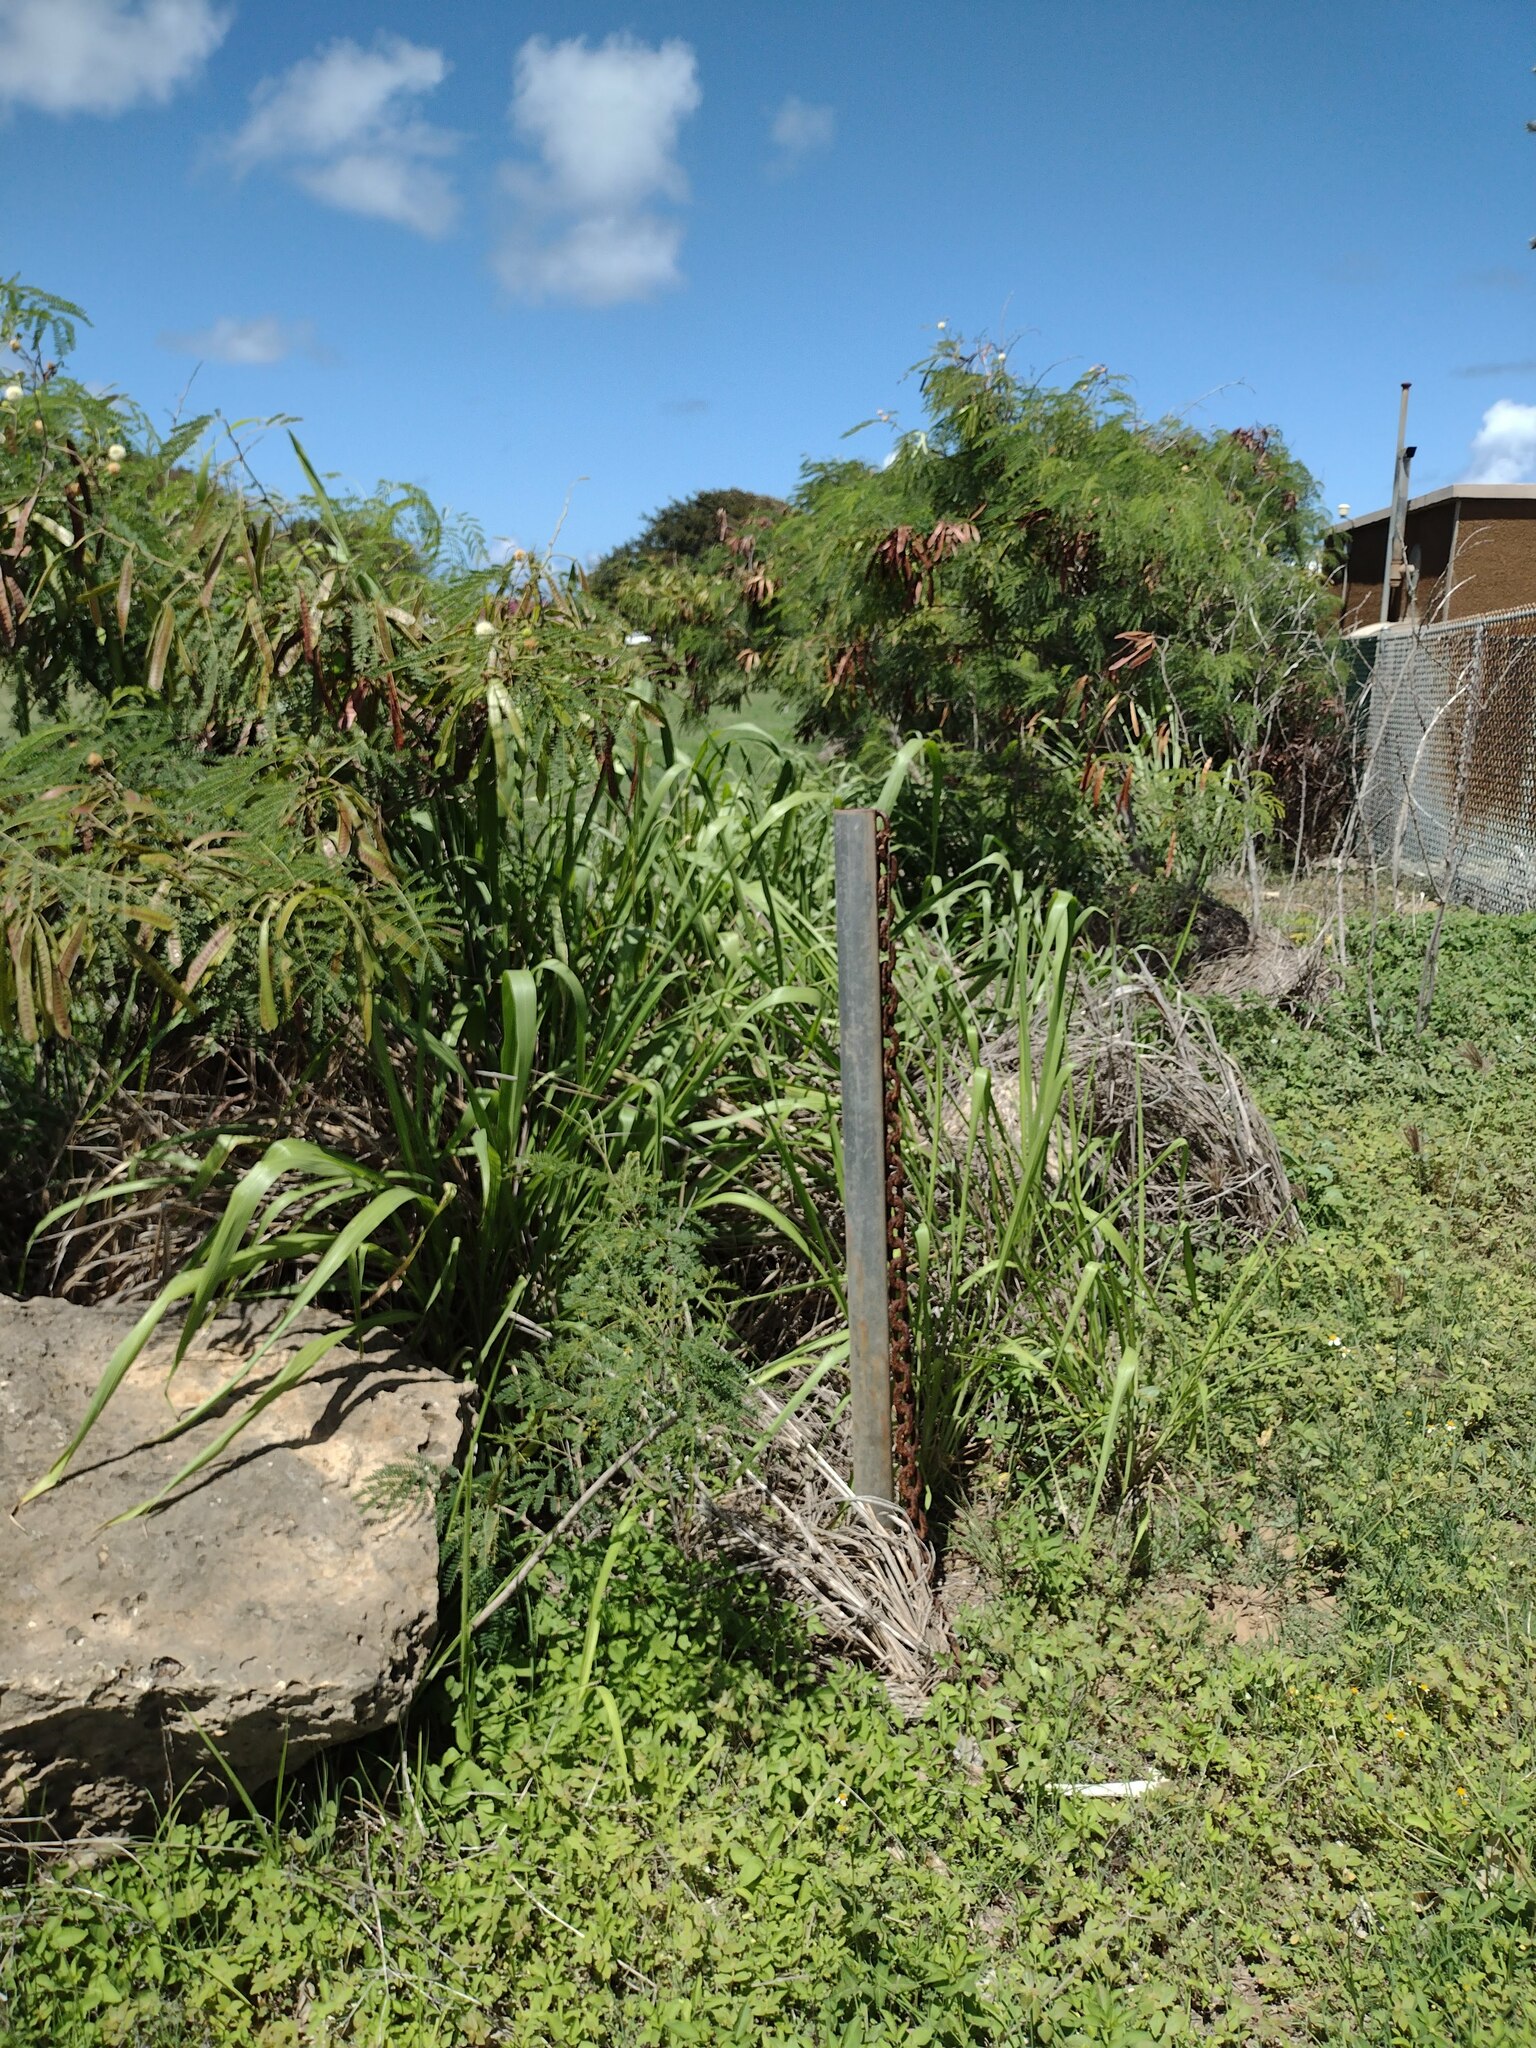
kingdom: Plantae
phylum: Tracheophyta
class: Liliopsida
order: Poales
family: Poaceae
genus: Megathyrsus
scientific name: Megathyrsus maximus
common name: Guineagrass
